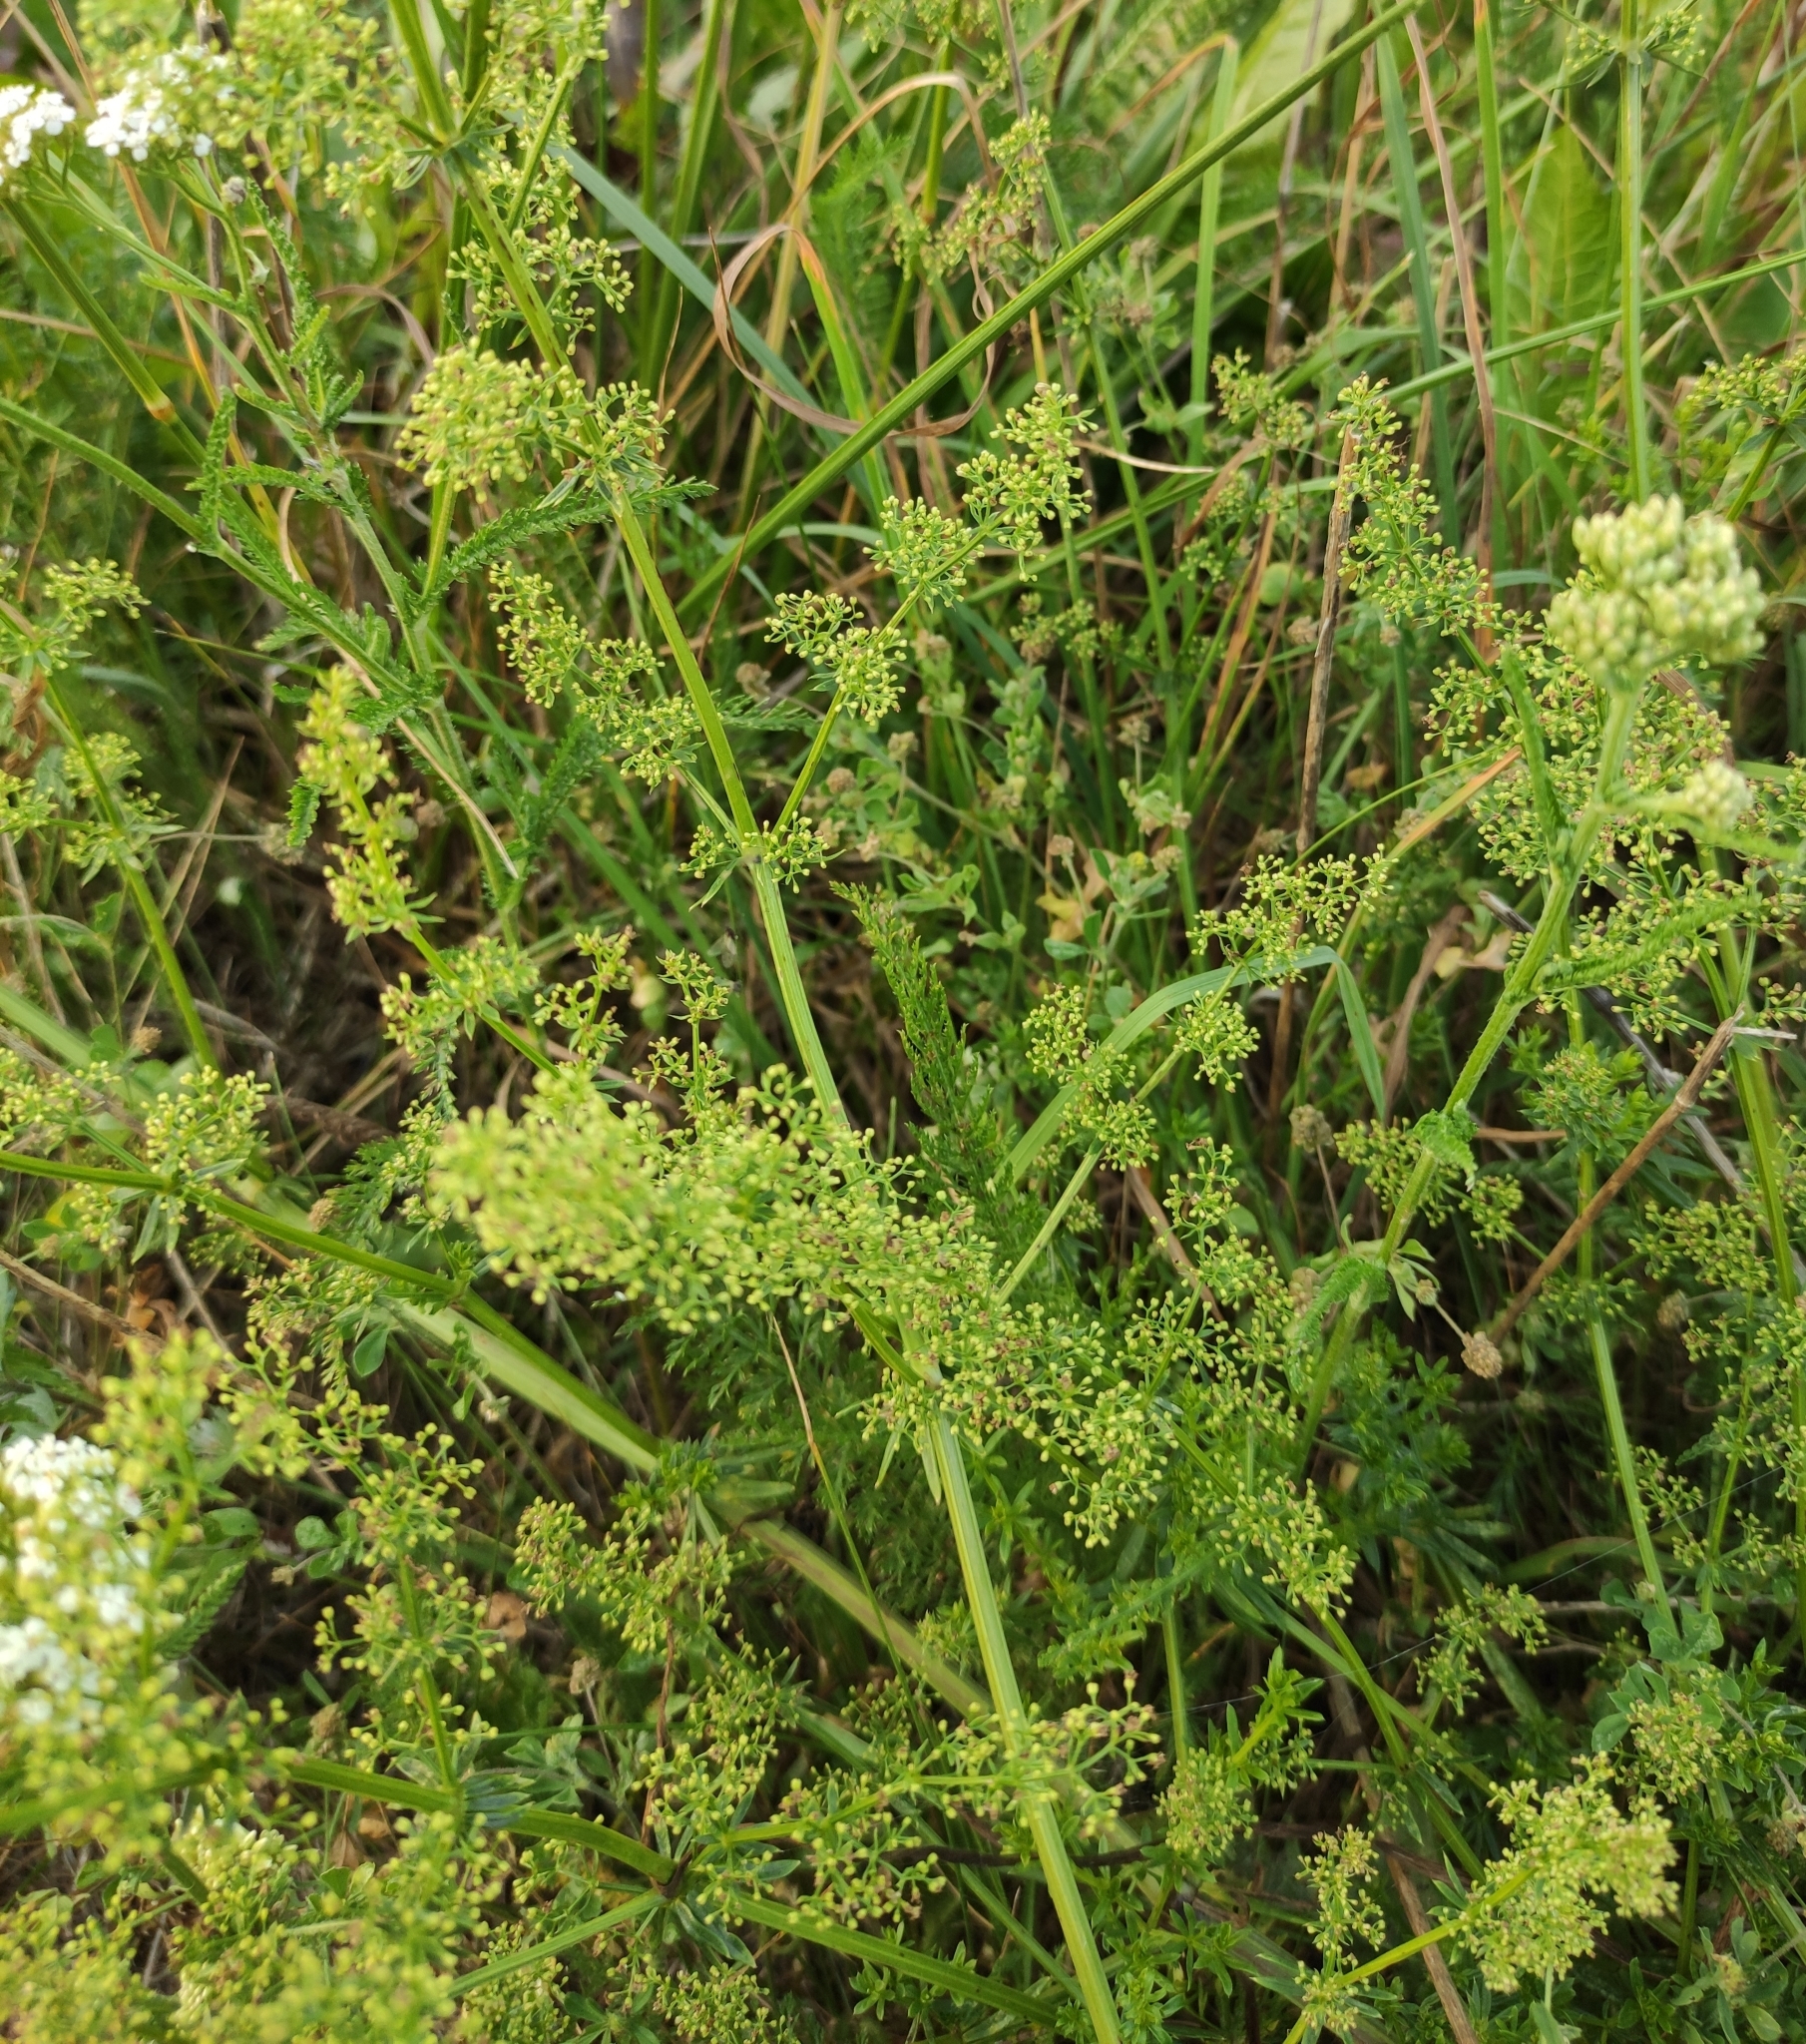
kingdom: Plantae
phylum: Tracheophyta
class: Magnoliopsida
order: Gentianales
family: Rubiaceae
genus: Galium
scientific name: Galium mollugo
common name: Hedge bedstraw
